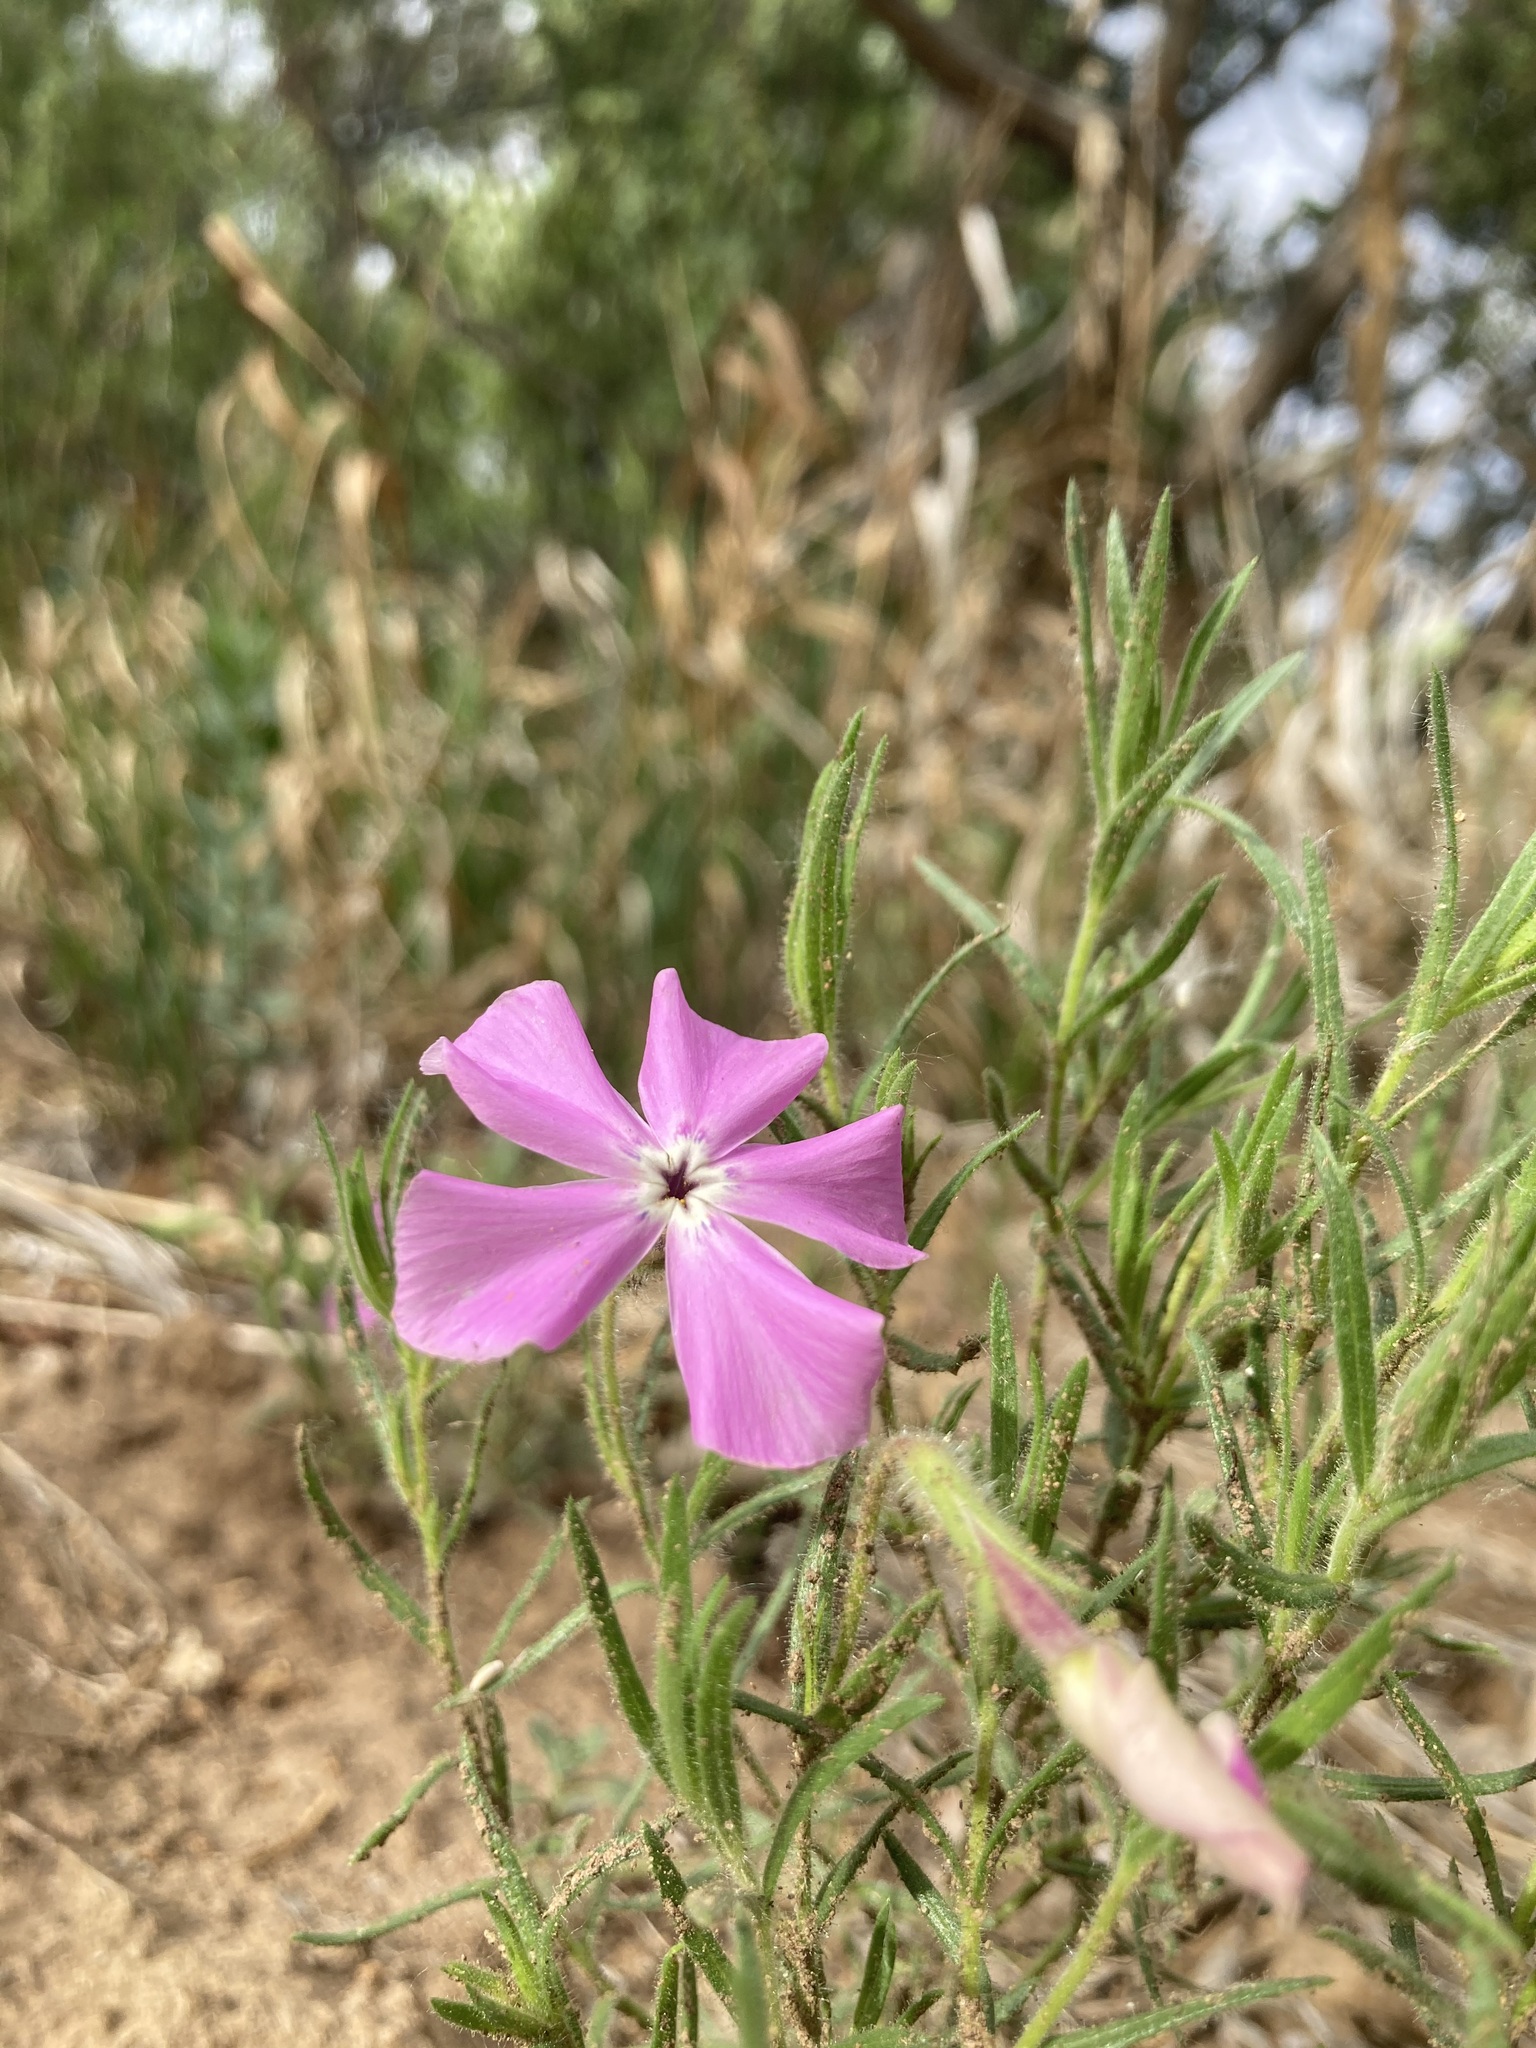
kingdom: Plantae
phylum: Tracheophyta
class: Magnoliopsida
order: Ericales
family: Polemoniaceae
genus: Phlox
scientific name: Phlox nana
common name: Santa fe phlox
